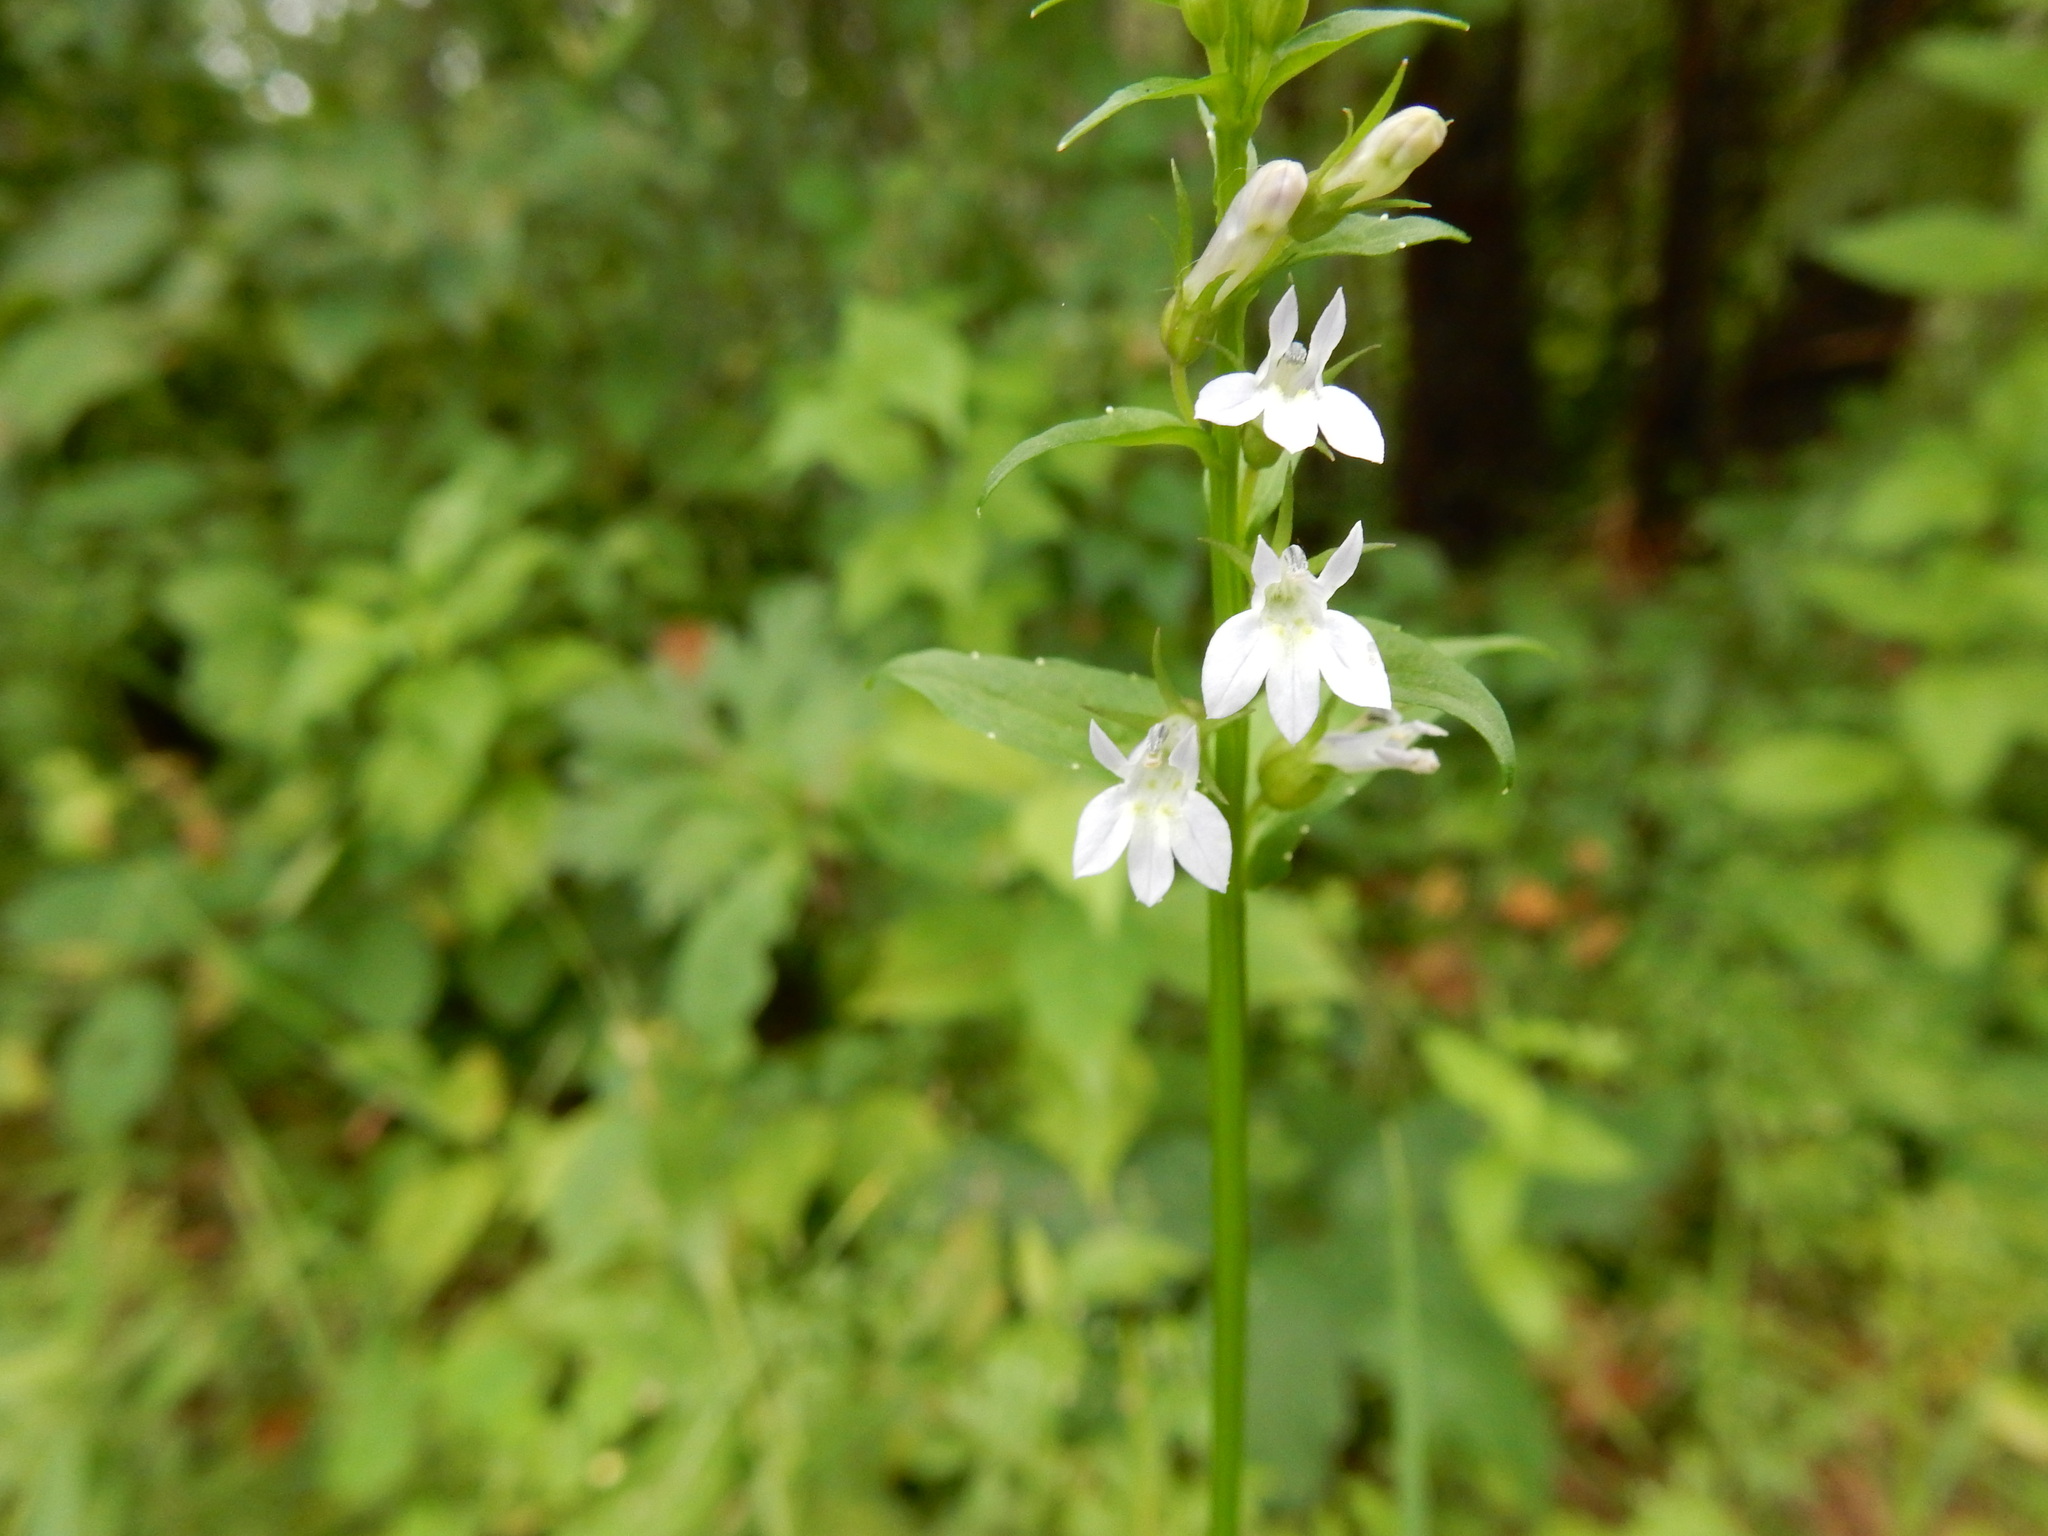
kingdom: Plantae
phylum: Tracheophyta
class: Magnoliopsida
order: Asterales
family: Campanulaceae
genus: Lobelia
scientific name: Lobelia inflata
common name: Indian tobacco
